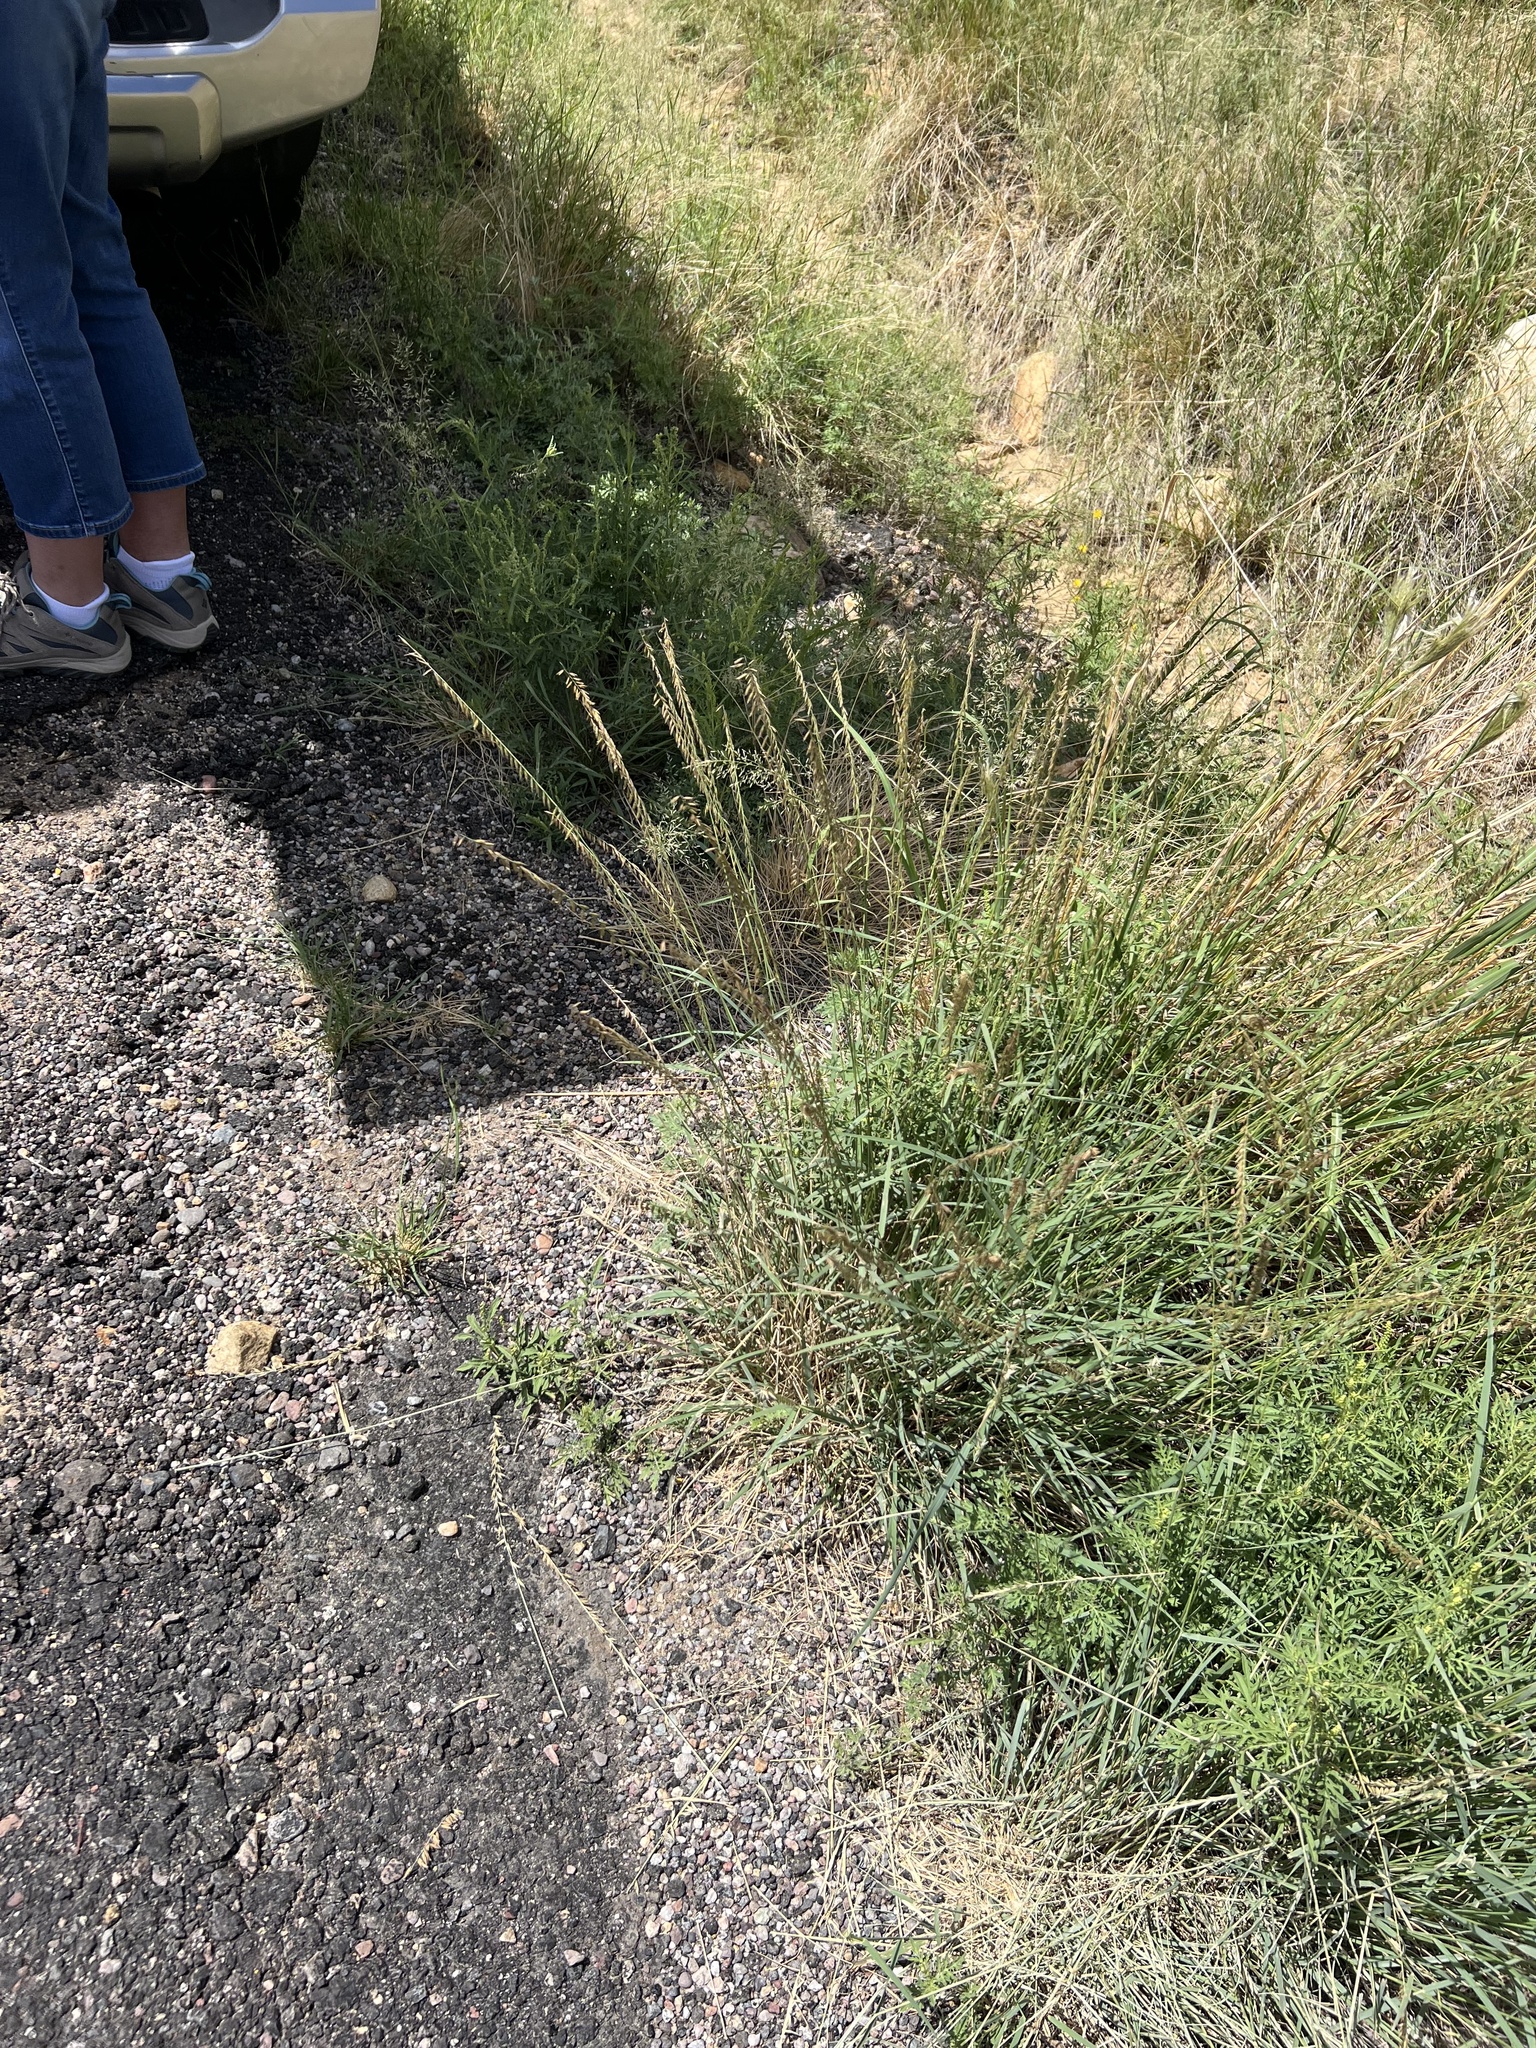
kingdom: Plantae
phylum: Tracheophyta
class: Liliopsida
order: Poales
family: Poaceae
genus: Bouteloua
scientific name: Bouteloua curtipendula
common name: Side-oats grama
